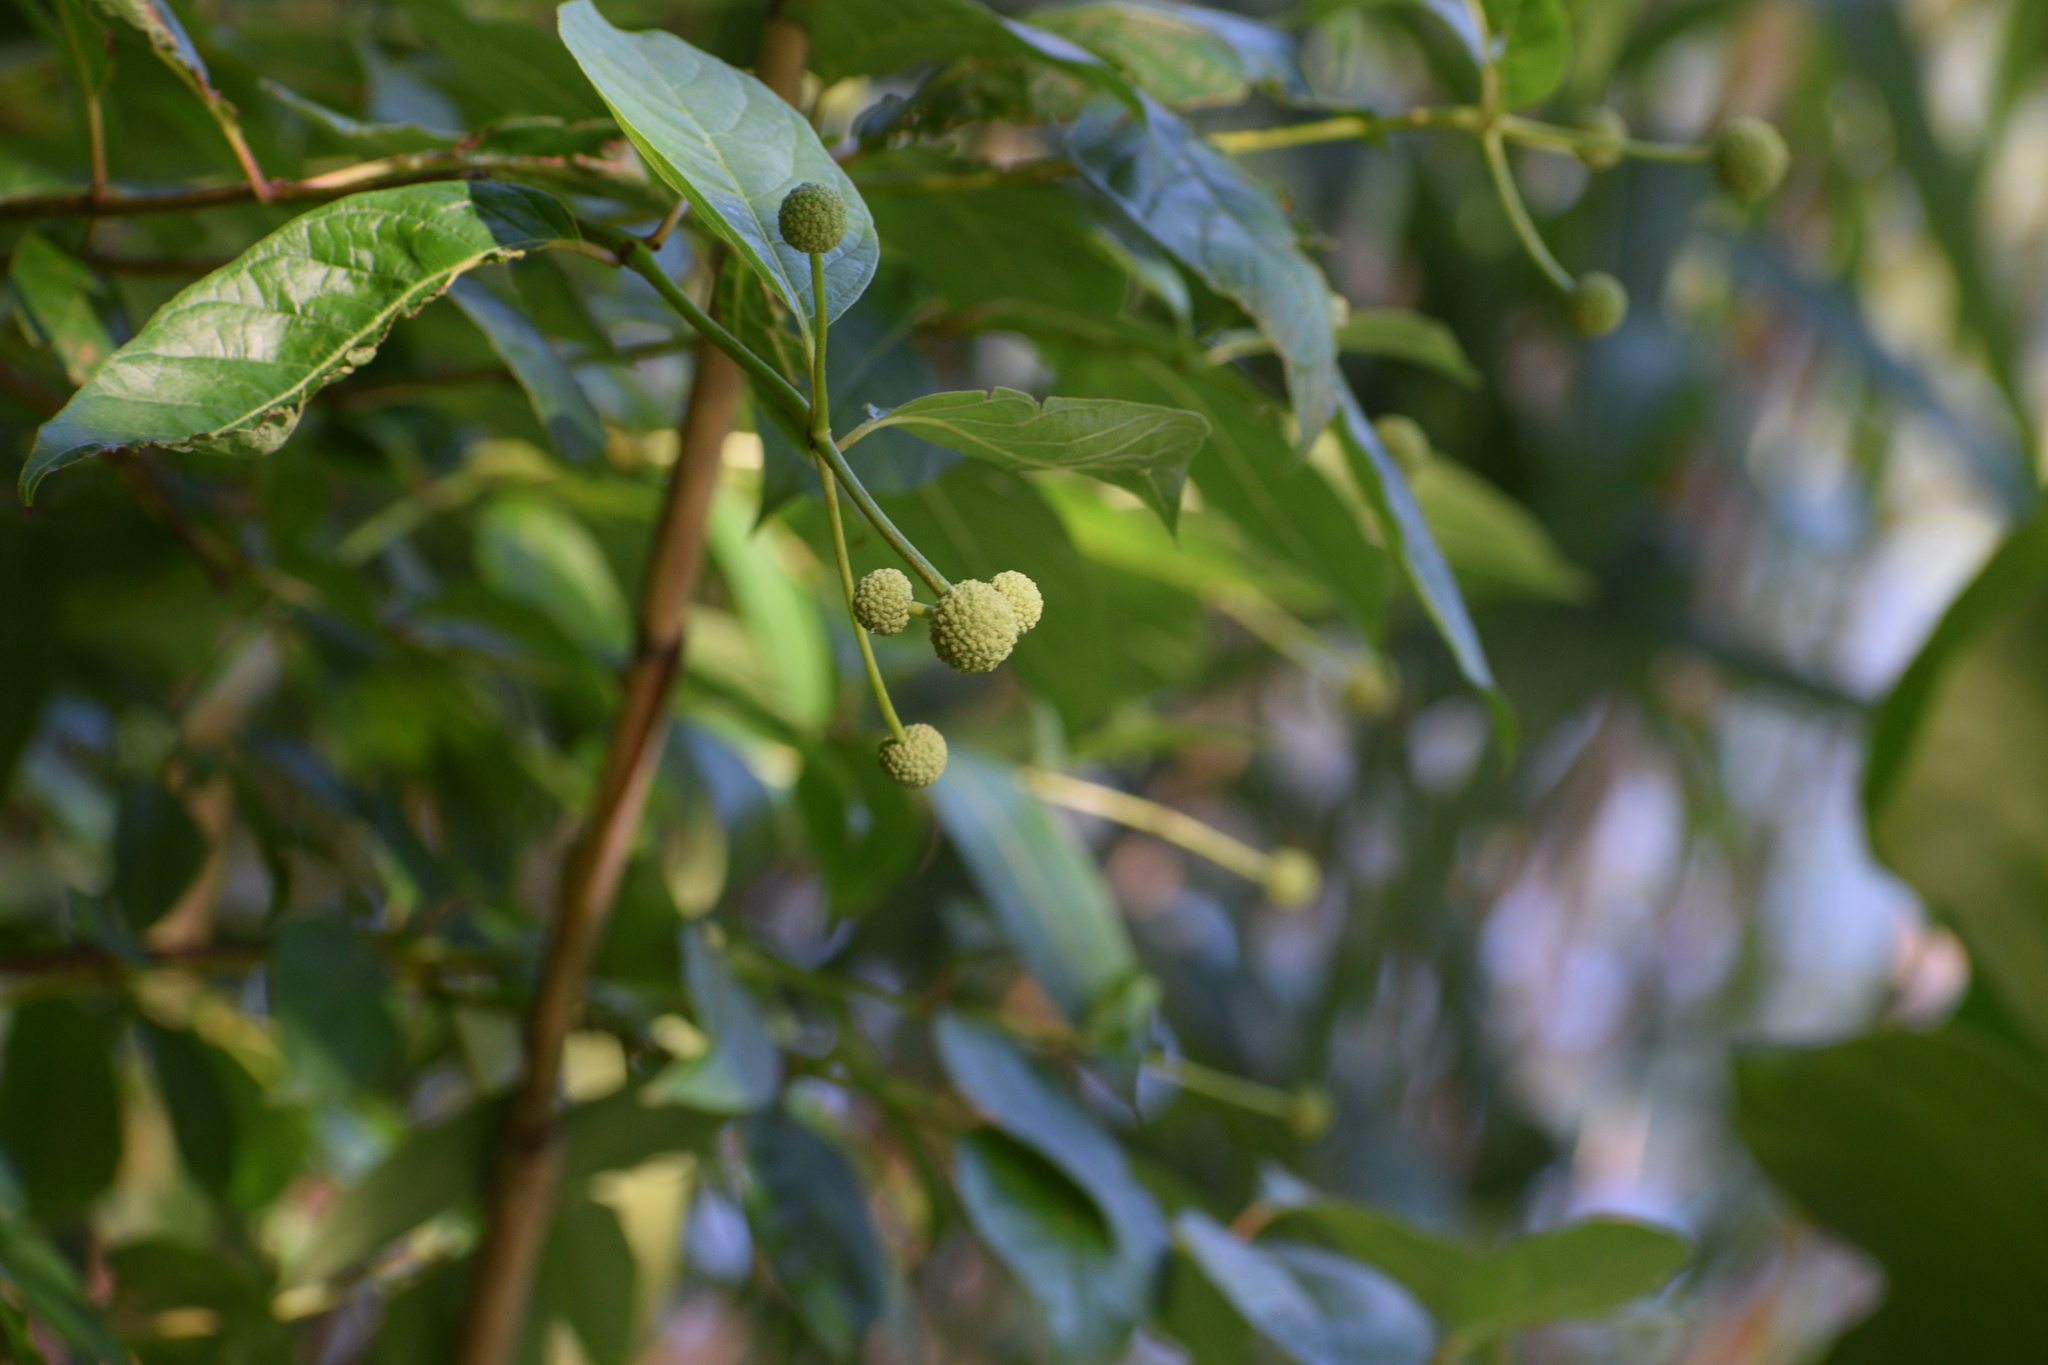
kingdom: Plantae
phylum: Tracheophyta
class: Magnoliopsida
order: Gentianales
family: Rubiaceae
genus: Cephalanthus
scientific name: Cephalanthus occidentalis
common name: Button-willow
